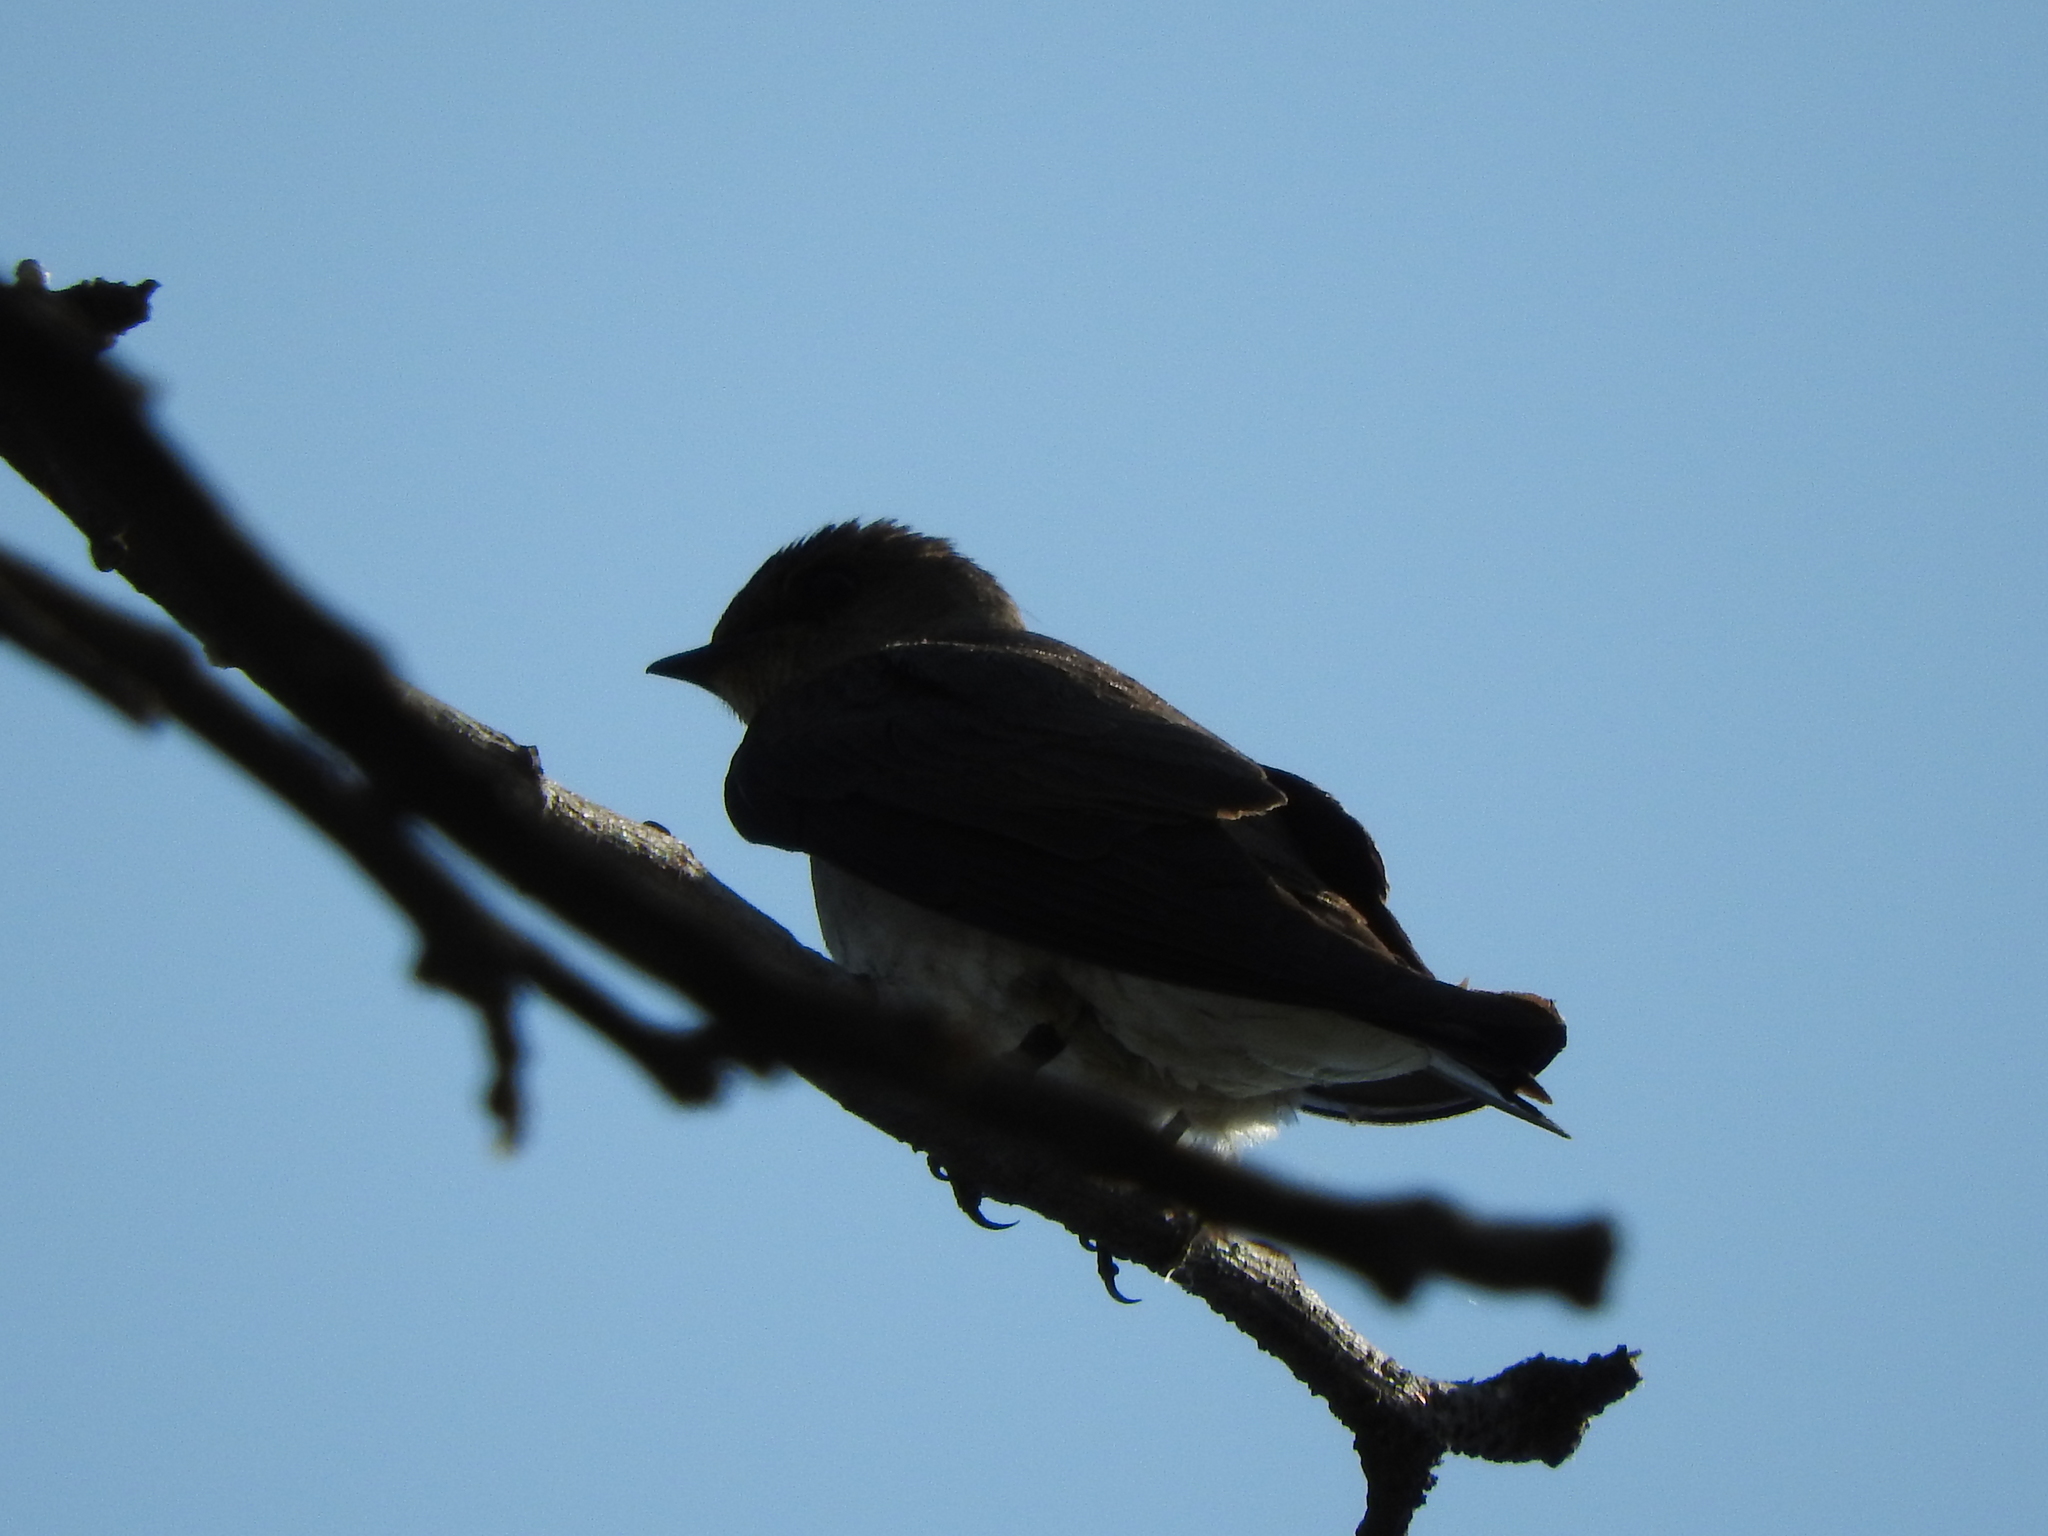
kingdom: Animalia
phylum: Chordata
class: Aves
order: Passeriformes
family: Hirundinidae
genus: Stelgidopteryx
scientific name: Stelgidopteryx serripennis
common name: Northern rough-winged swallow
